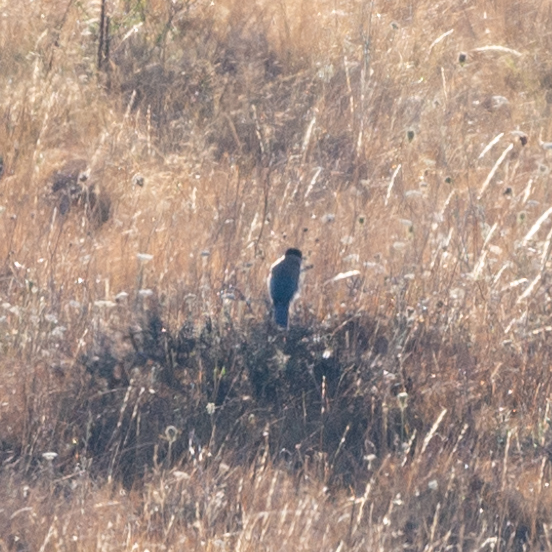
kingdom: Animalia
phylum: Chordata
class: Aves
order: Passeriformes
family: Corvidae
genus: Cyanopica
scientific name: Cyanopica cooki
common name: Iberian magpie
